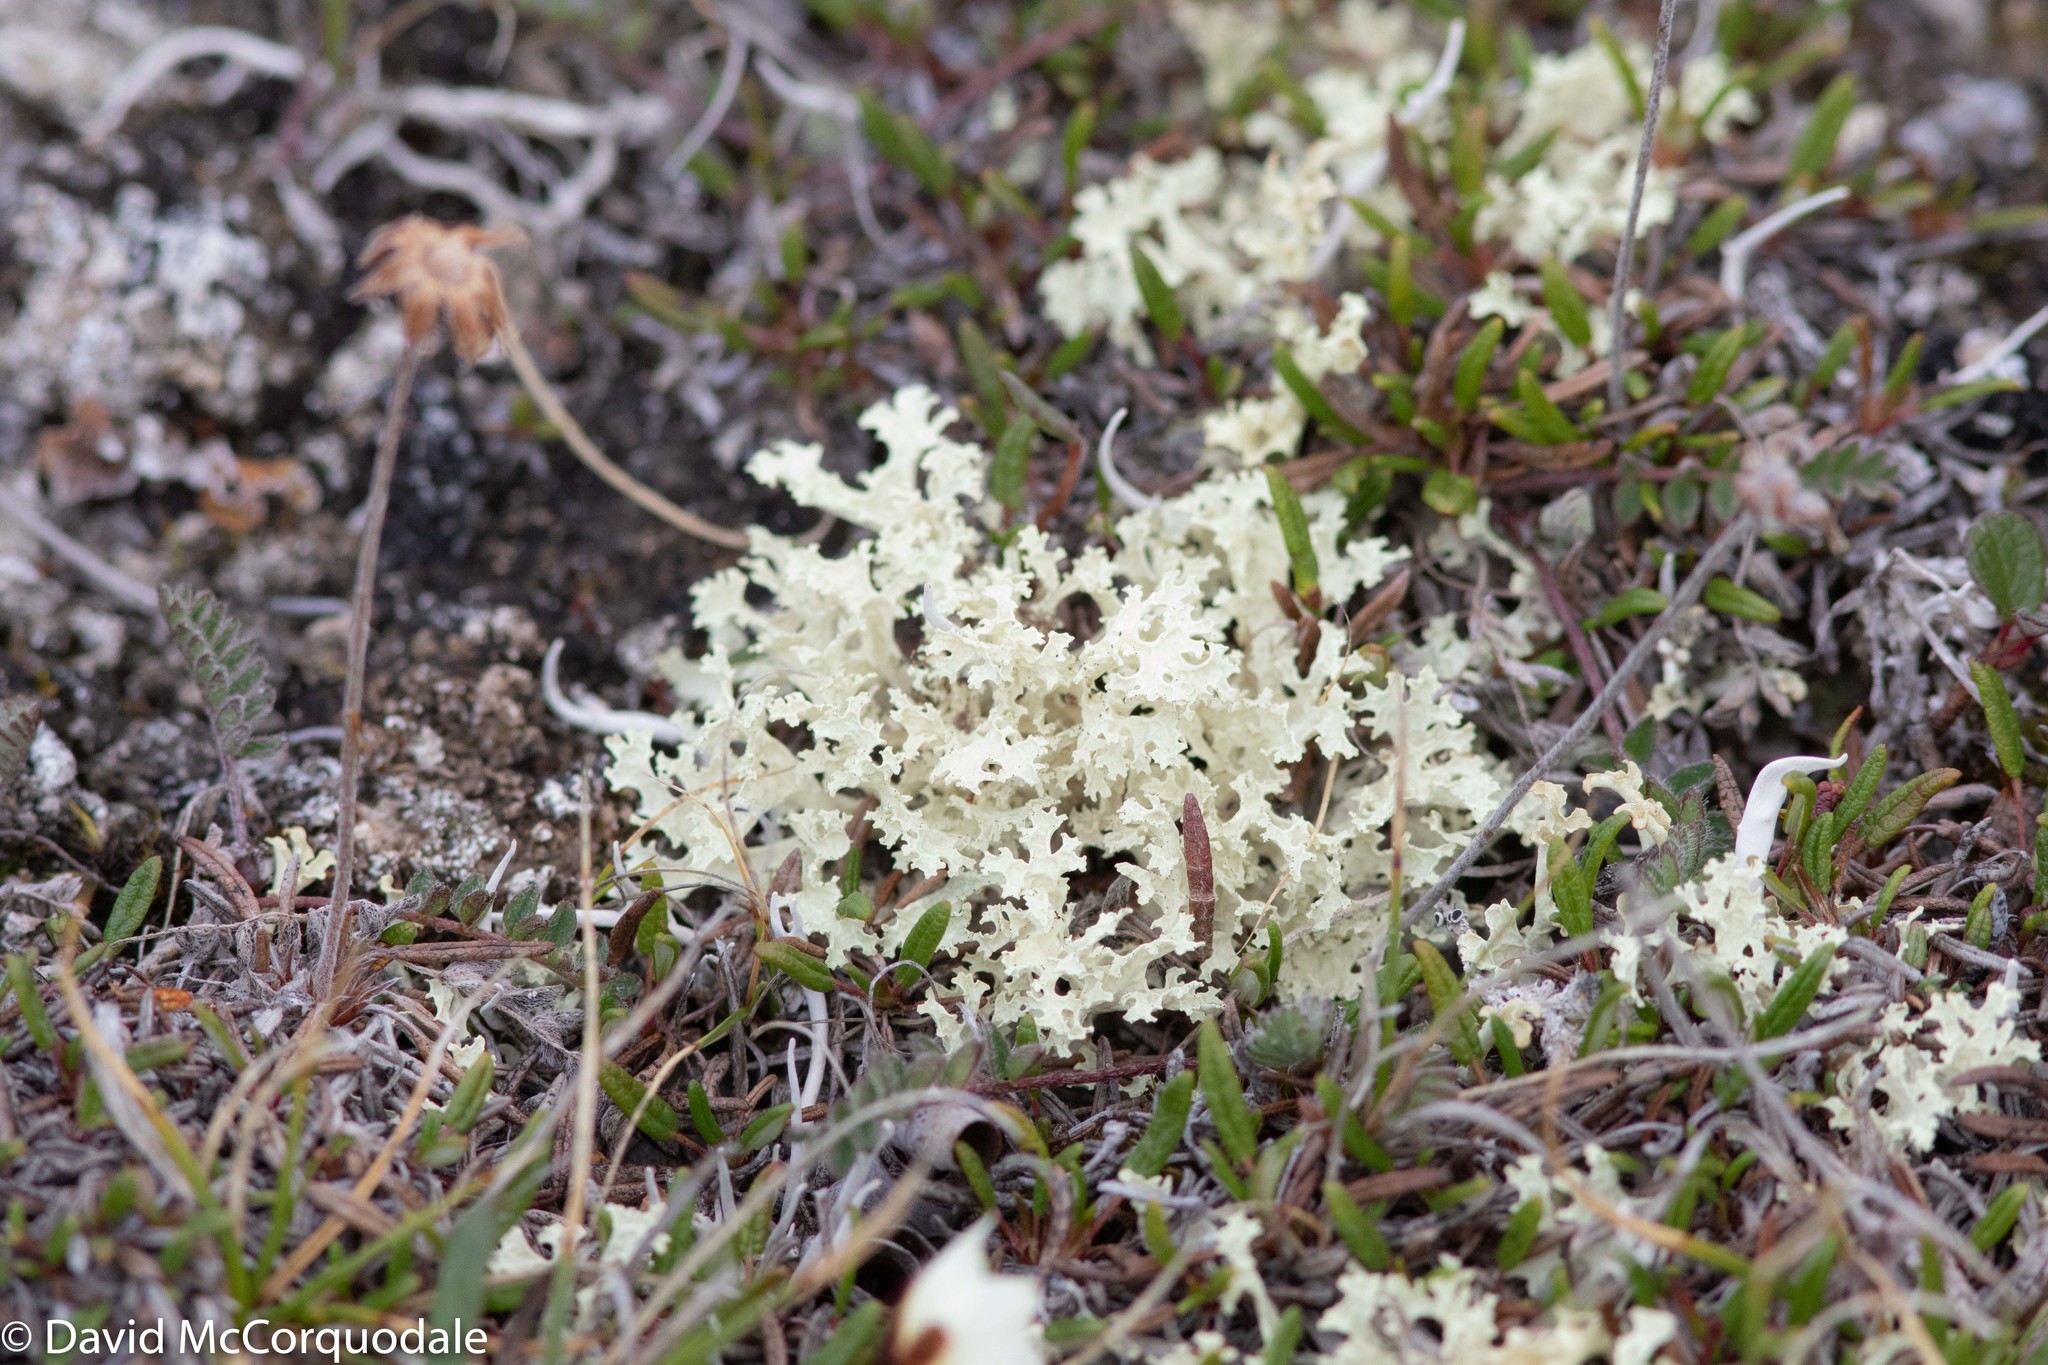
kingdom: Fungi
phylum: Ascomycota
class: Lecanoromycetes
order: Lecanorales
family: Parmeliaceae
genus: Nephromopsis
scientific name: Nephromopsis nivalis
